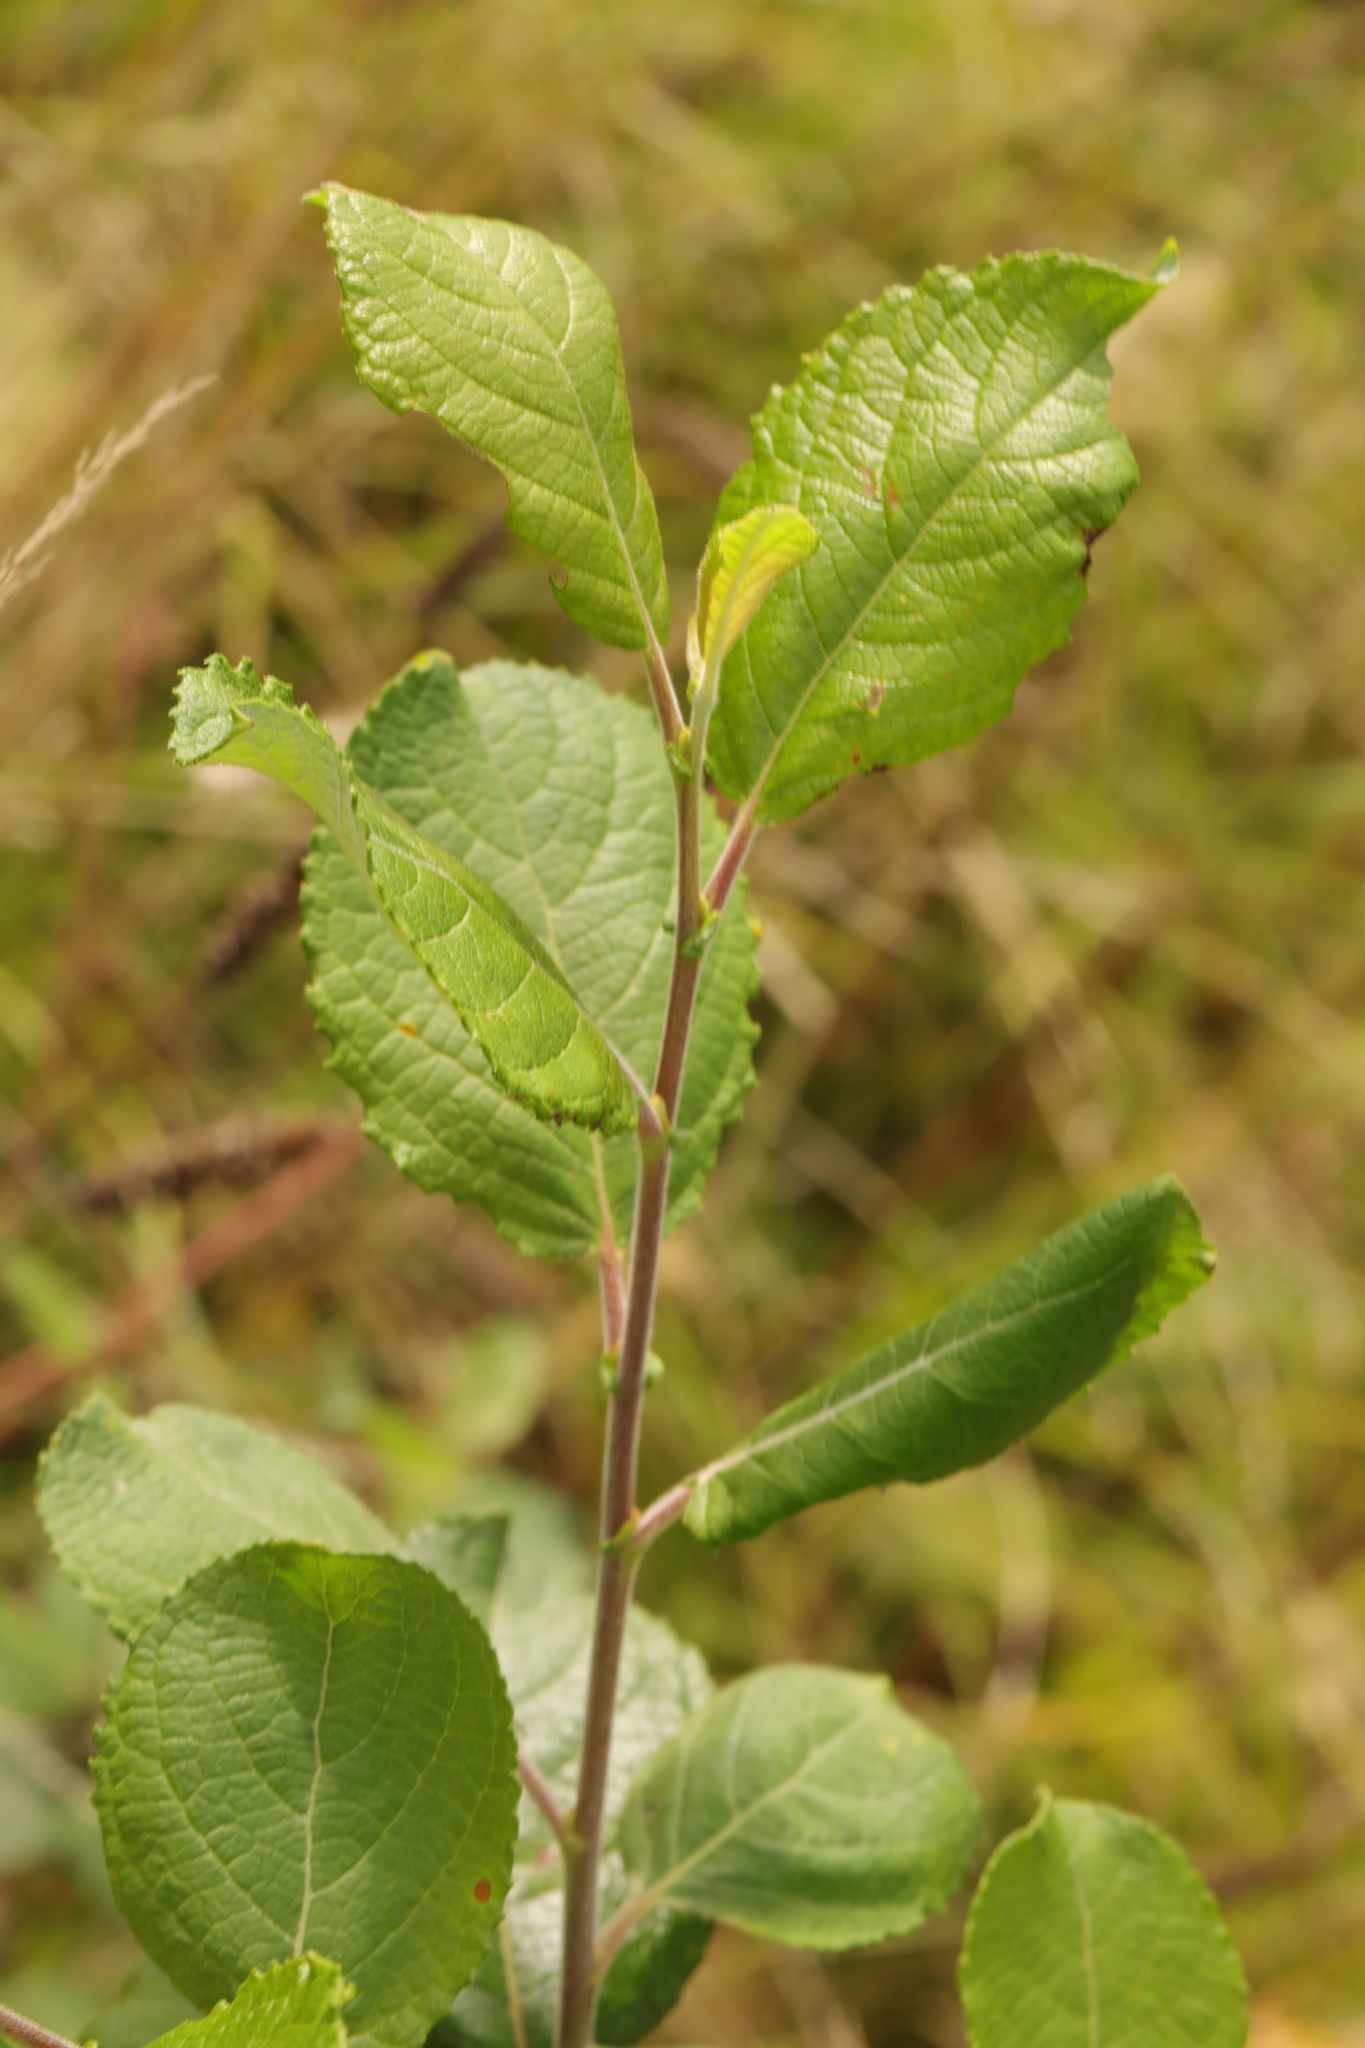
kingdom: Plantae
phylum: Tracheophyta
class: Magnoliopsida
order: Malpighiales
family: Salicaceae
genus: Salix
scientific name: Salix caprea
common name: Goat willow
